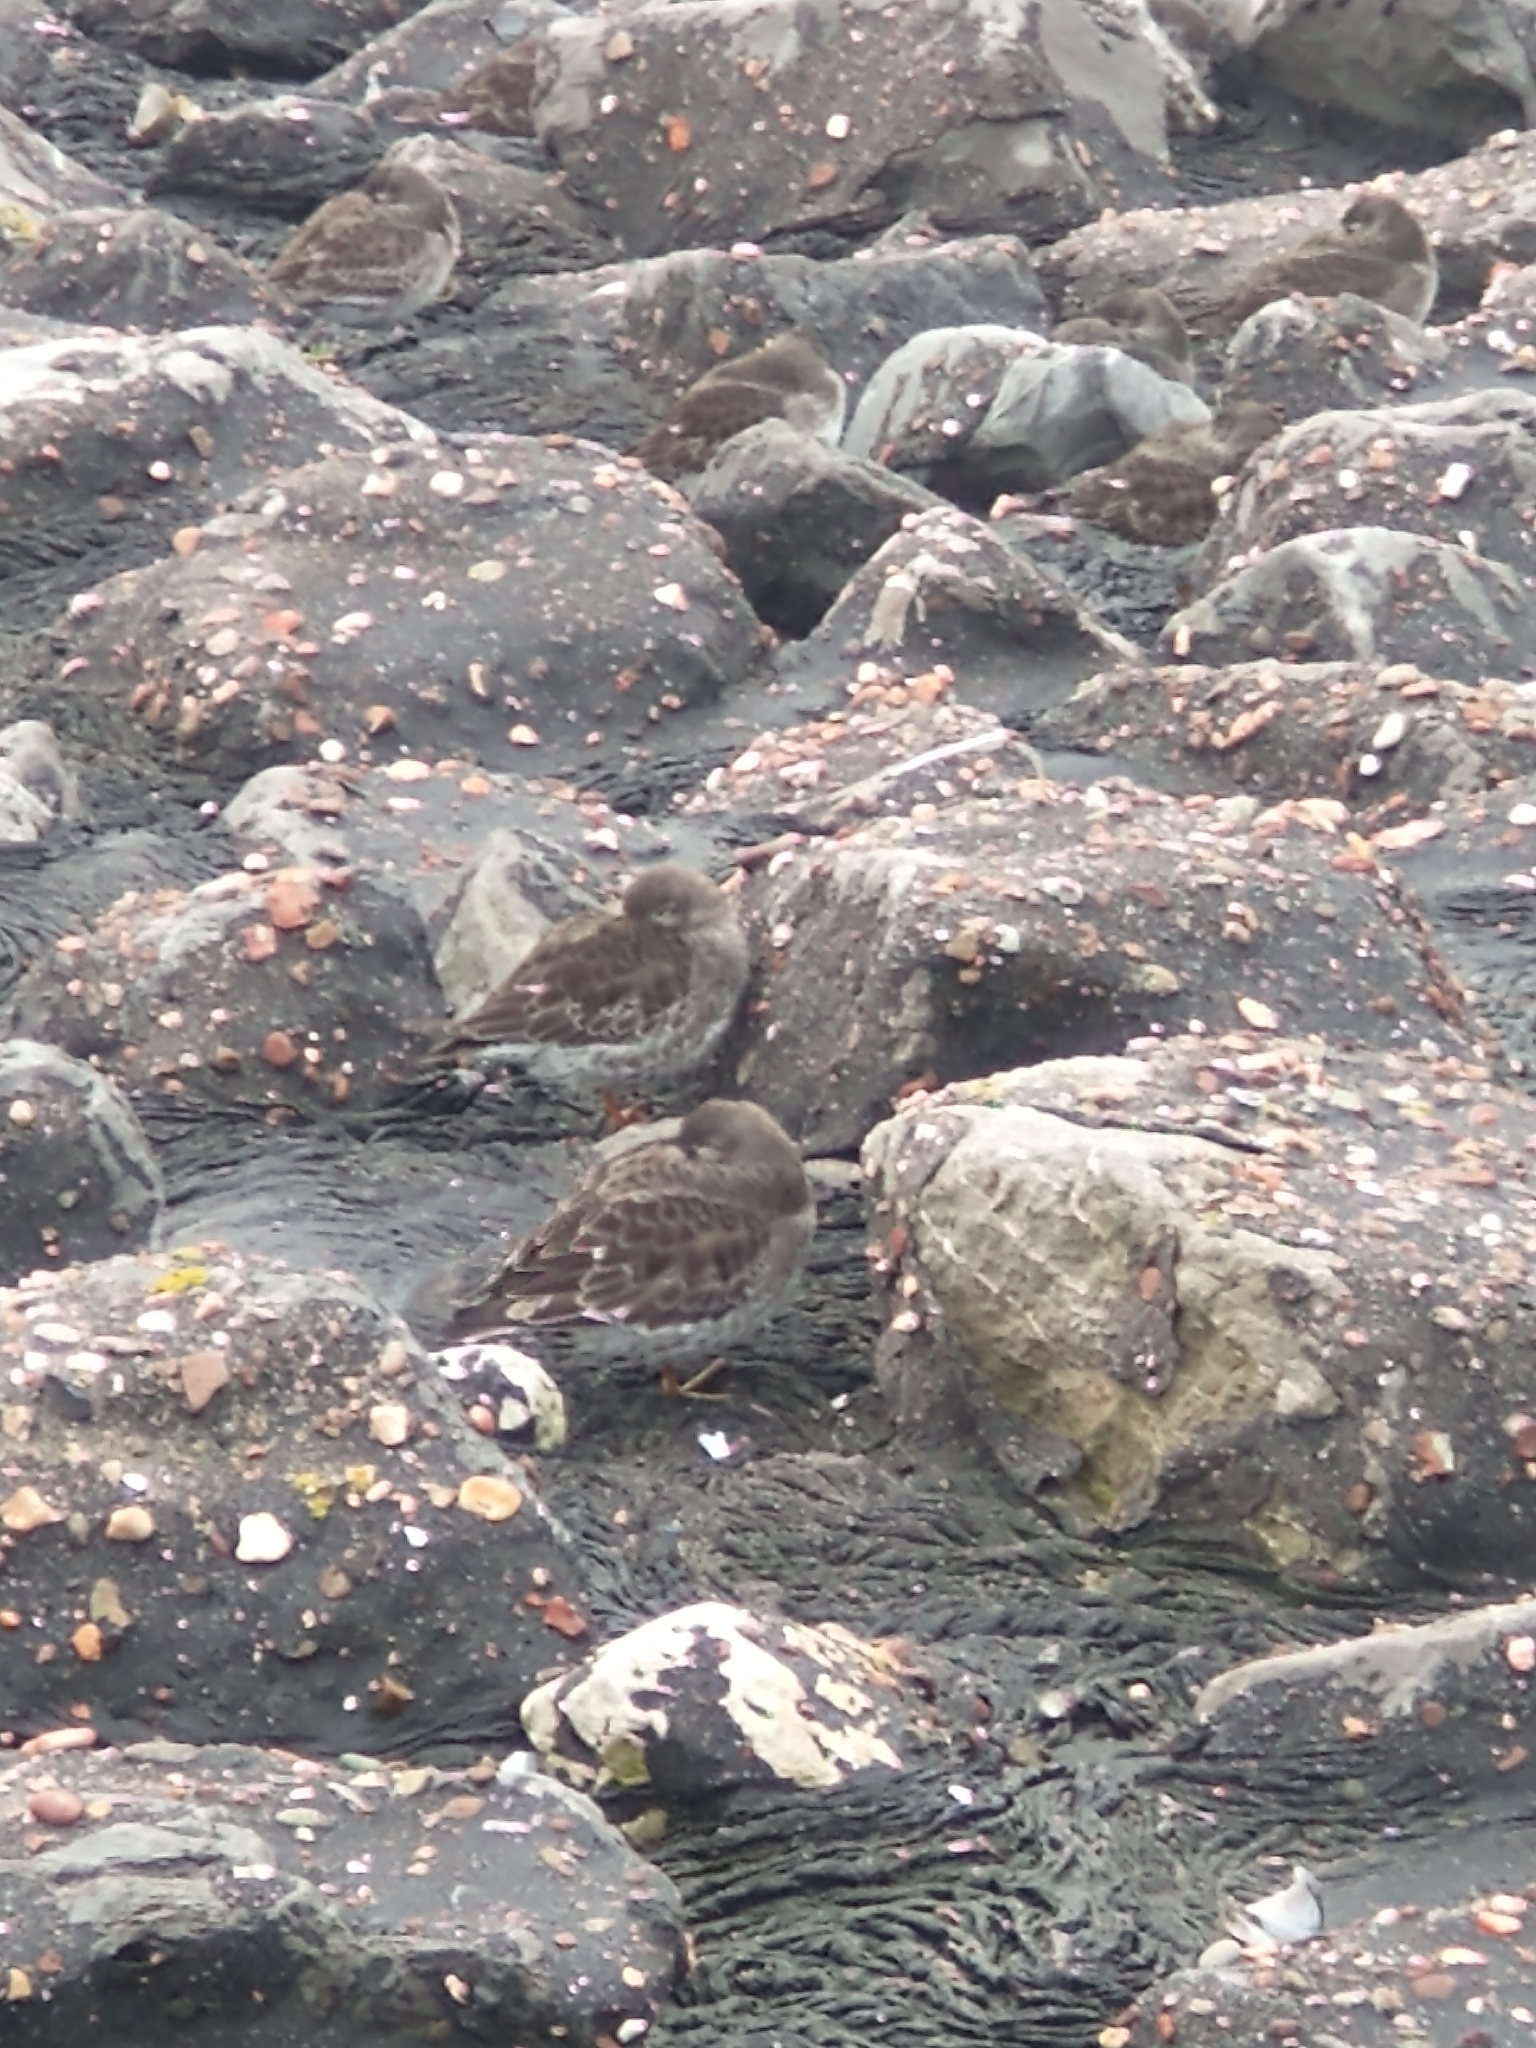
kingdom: Animalia
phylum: Chordata
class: Aves
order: Charadriiformes
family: Scolopacidae
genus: Calidris
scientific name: Calidris maritima
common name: Purple sandpiper
